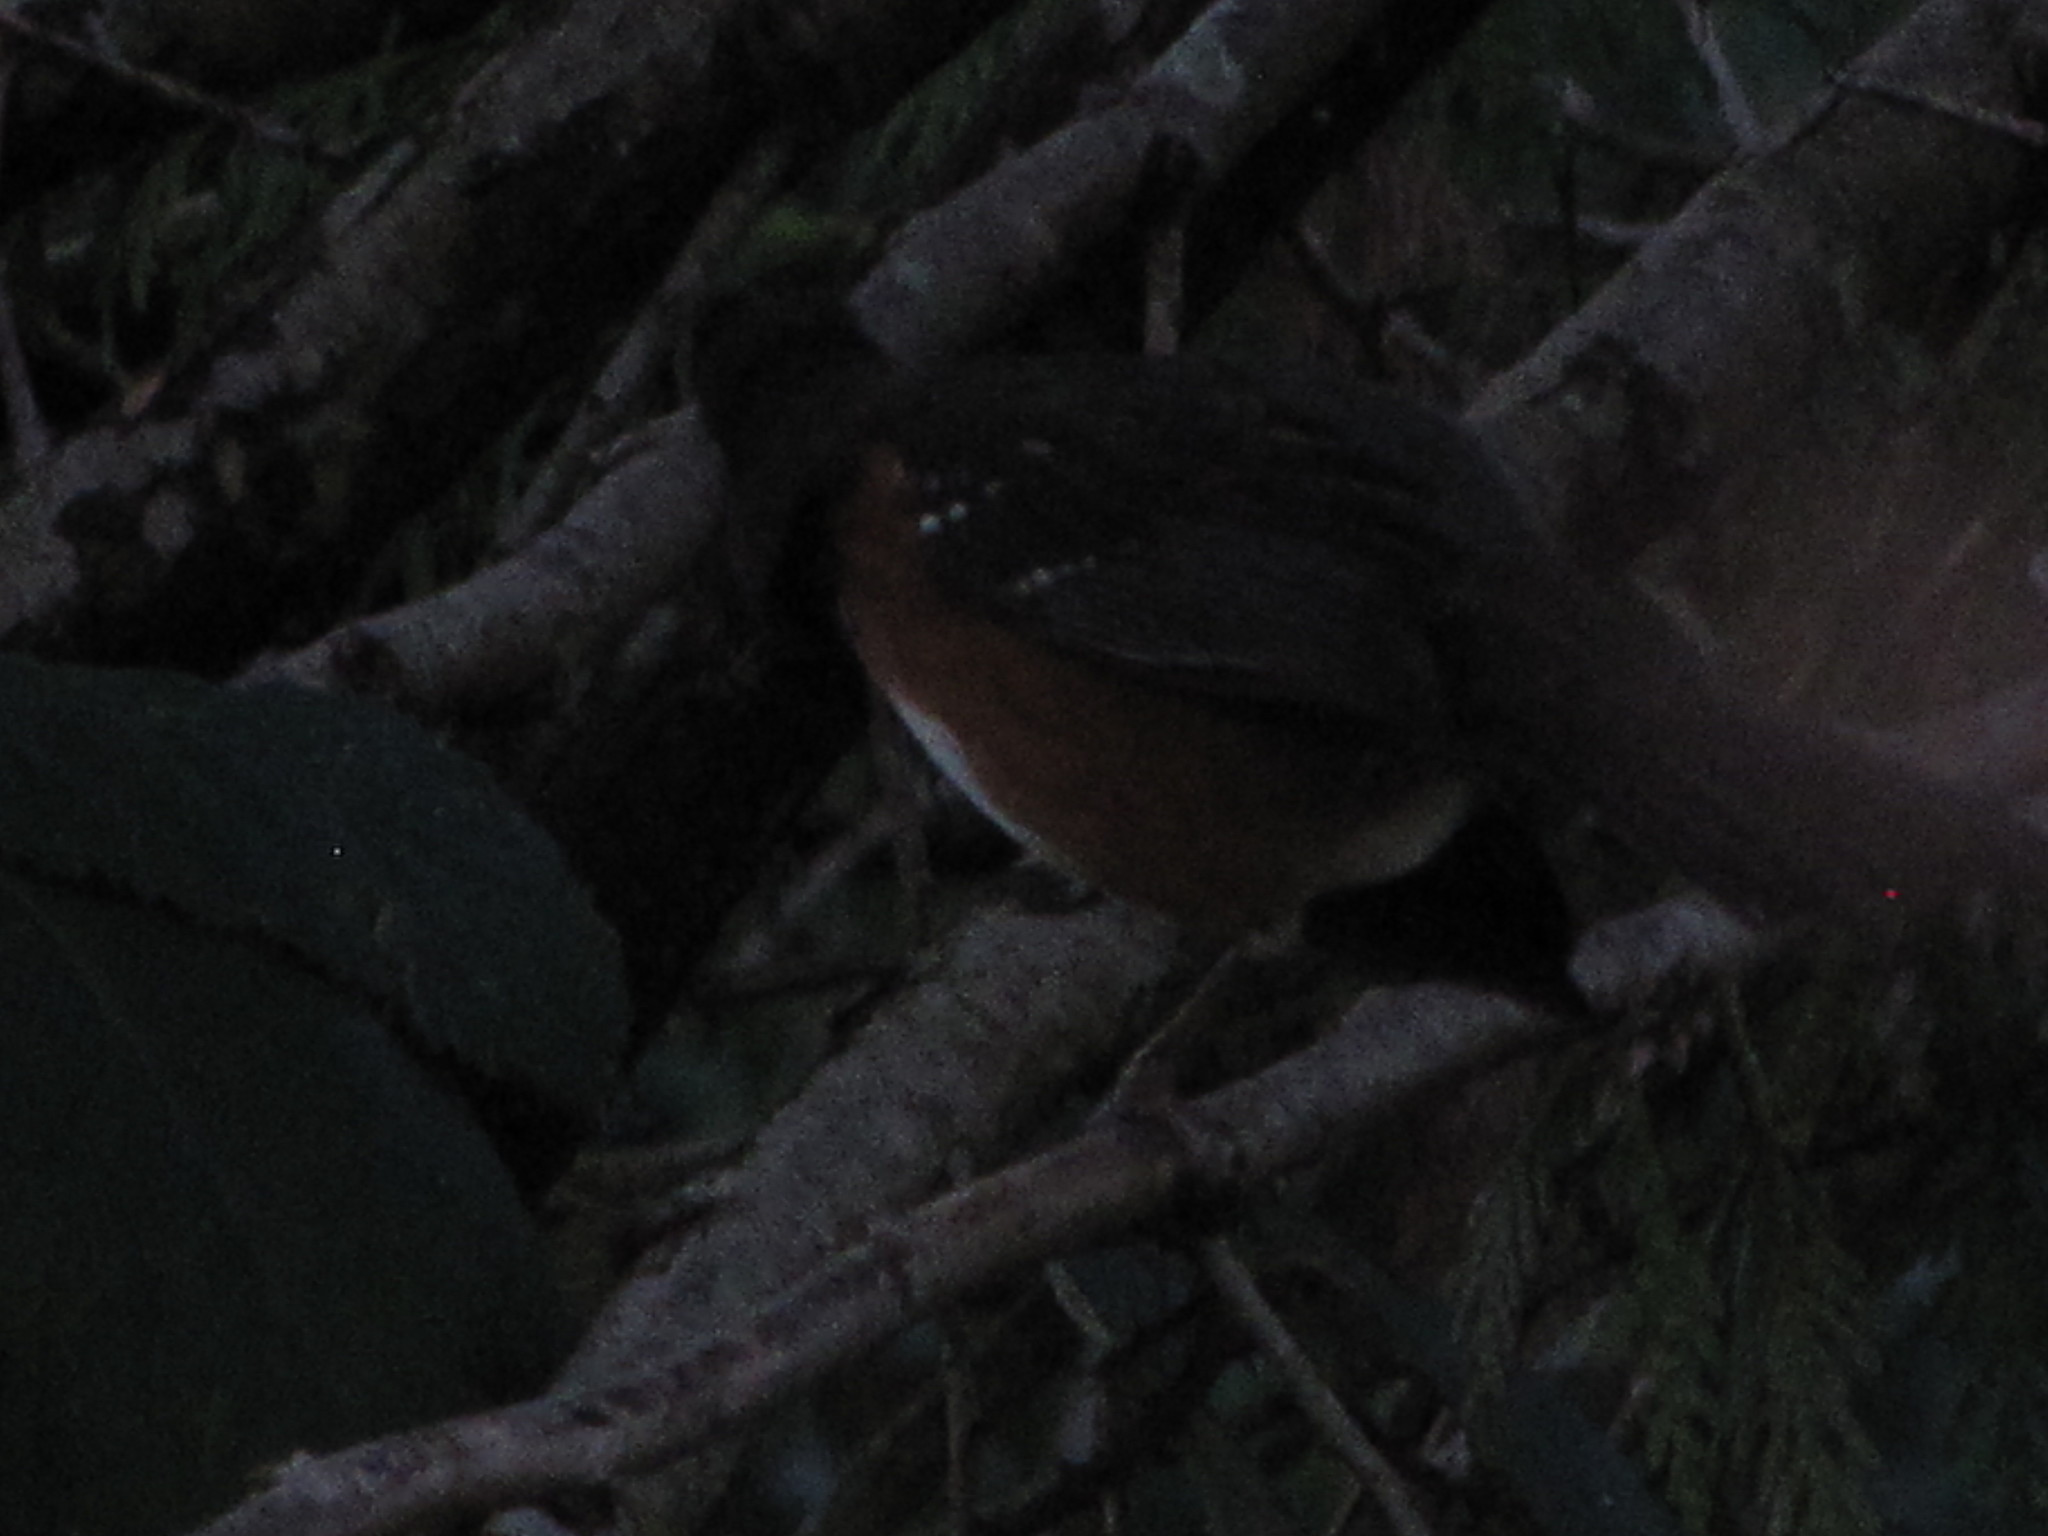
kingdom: Animalia
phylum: Chordata
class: Aves
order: Passeriformes
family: Passerellidae
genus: Pipilo
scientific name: Pipilo maculatus
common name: Spotted towhee
